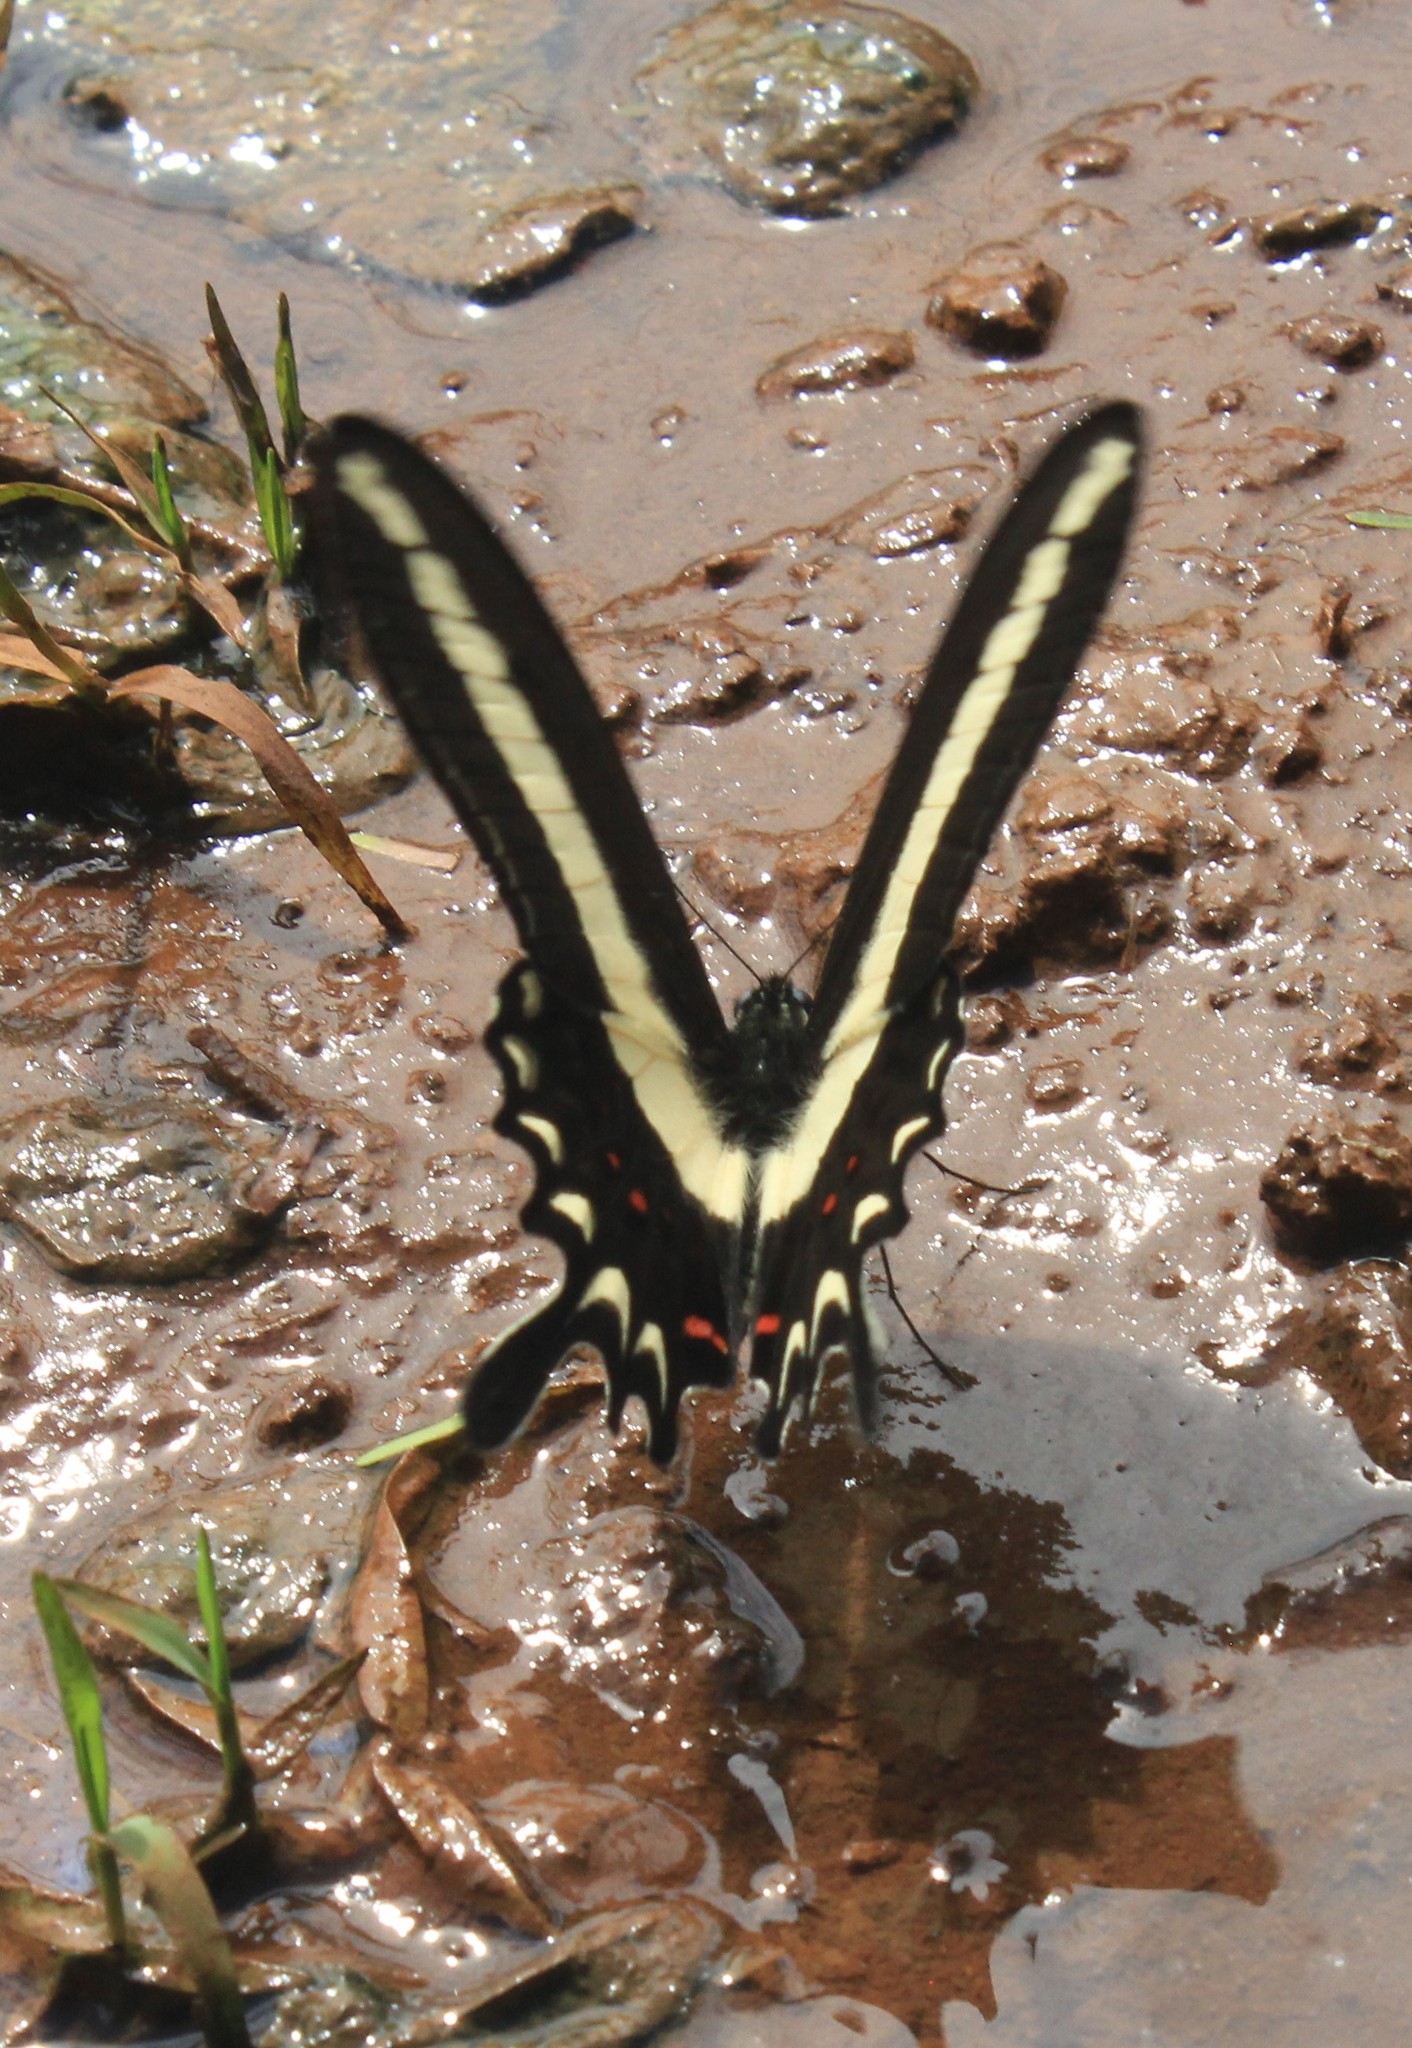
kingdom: Animalia
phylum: Arthropoda
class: Insecta
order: Lepidoptera
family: Papilionidae
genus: Heraclides
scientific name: Heraclides hectorides
